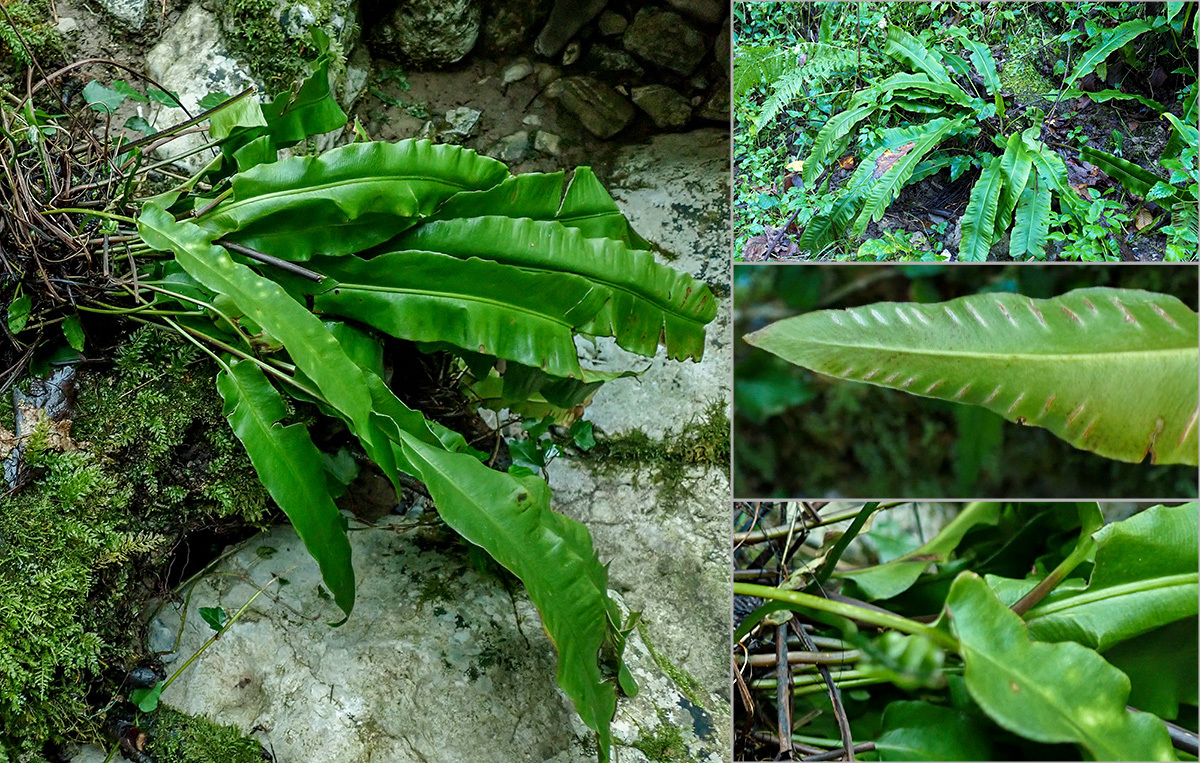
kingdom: Plantae
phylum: Tracheophyta
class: Polypodiopsida
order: Polypodiales
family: Aspleniaceae
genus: Asplenium
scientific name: Asplenium scolopendrium
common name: Hart's-tongue fern
